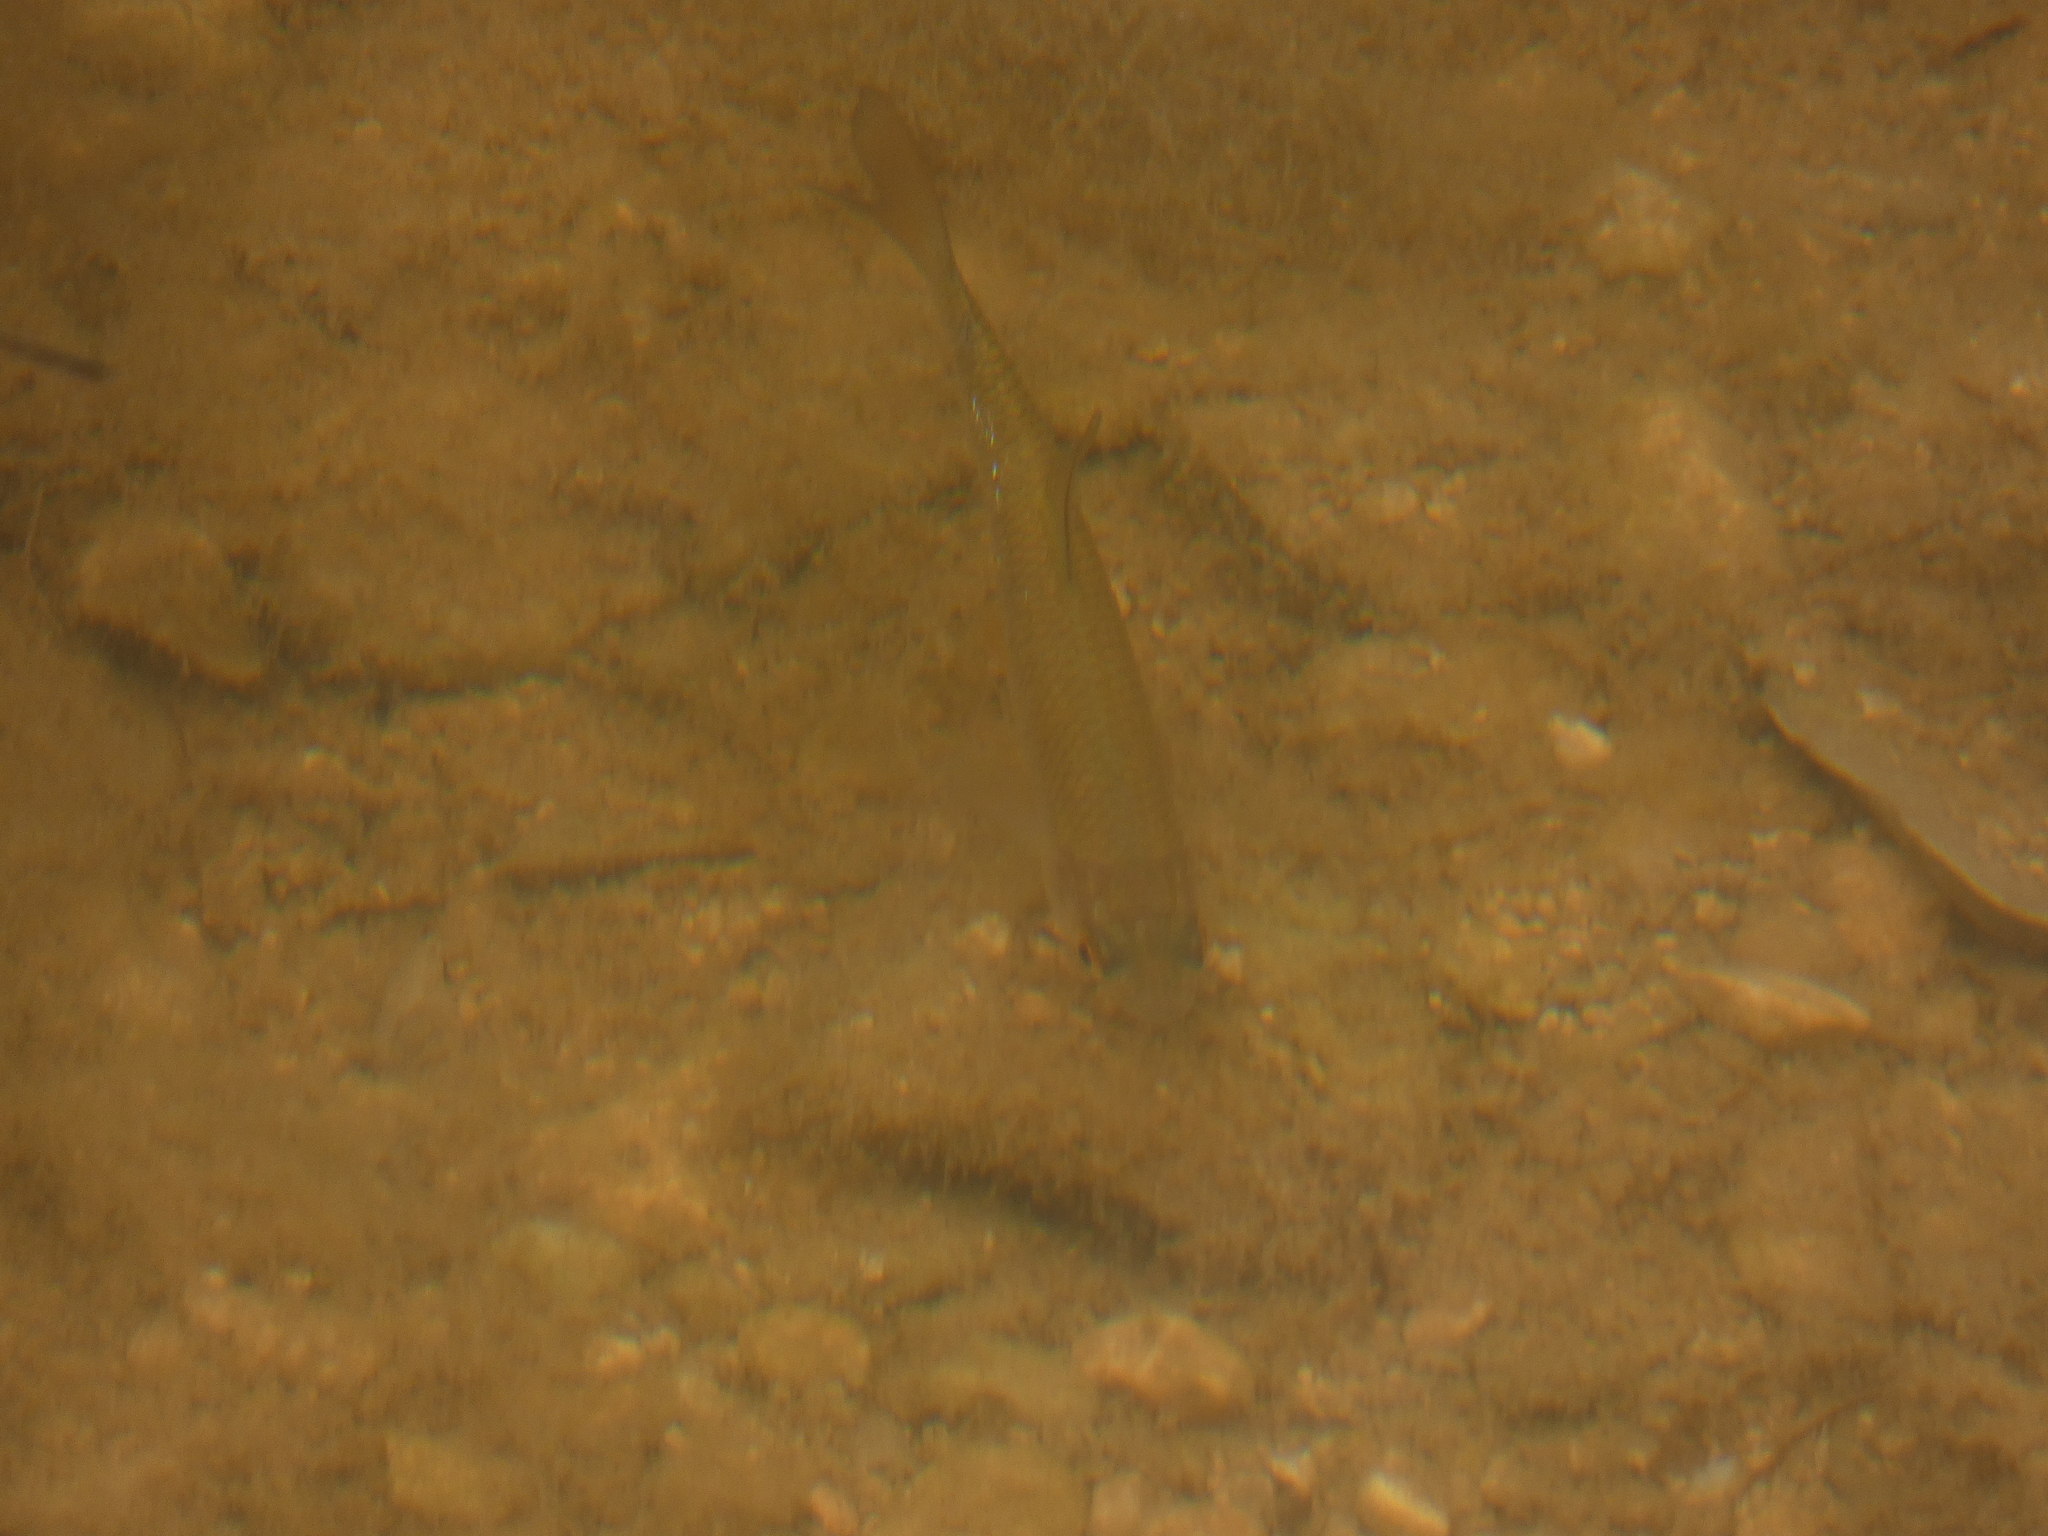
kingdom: Animalia
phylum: Chordata
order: Cypriniformes
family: Cyprinidae
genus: Rutilus
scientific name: Rutilus rutilus
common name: Roach
